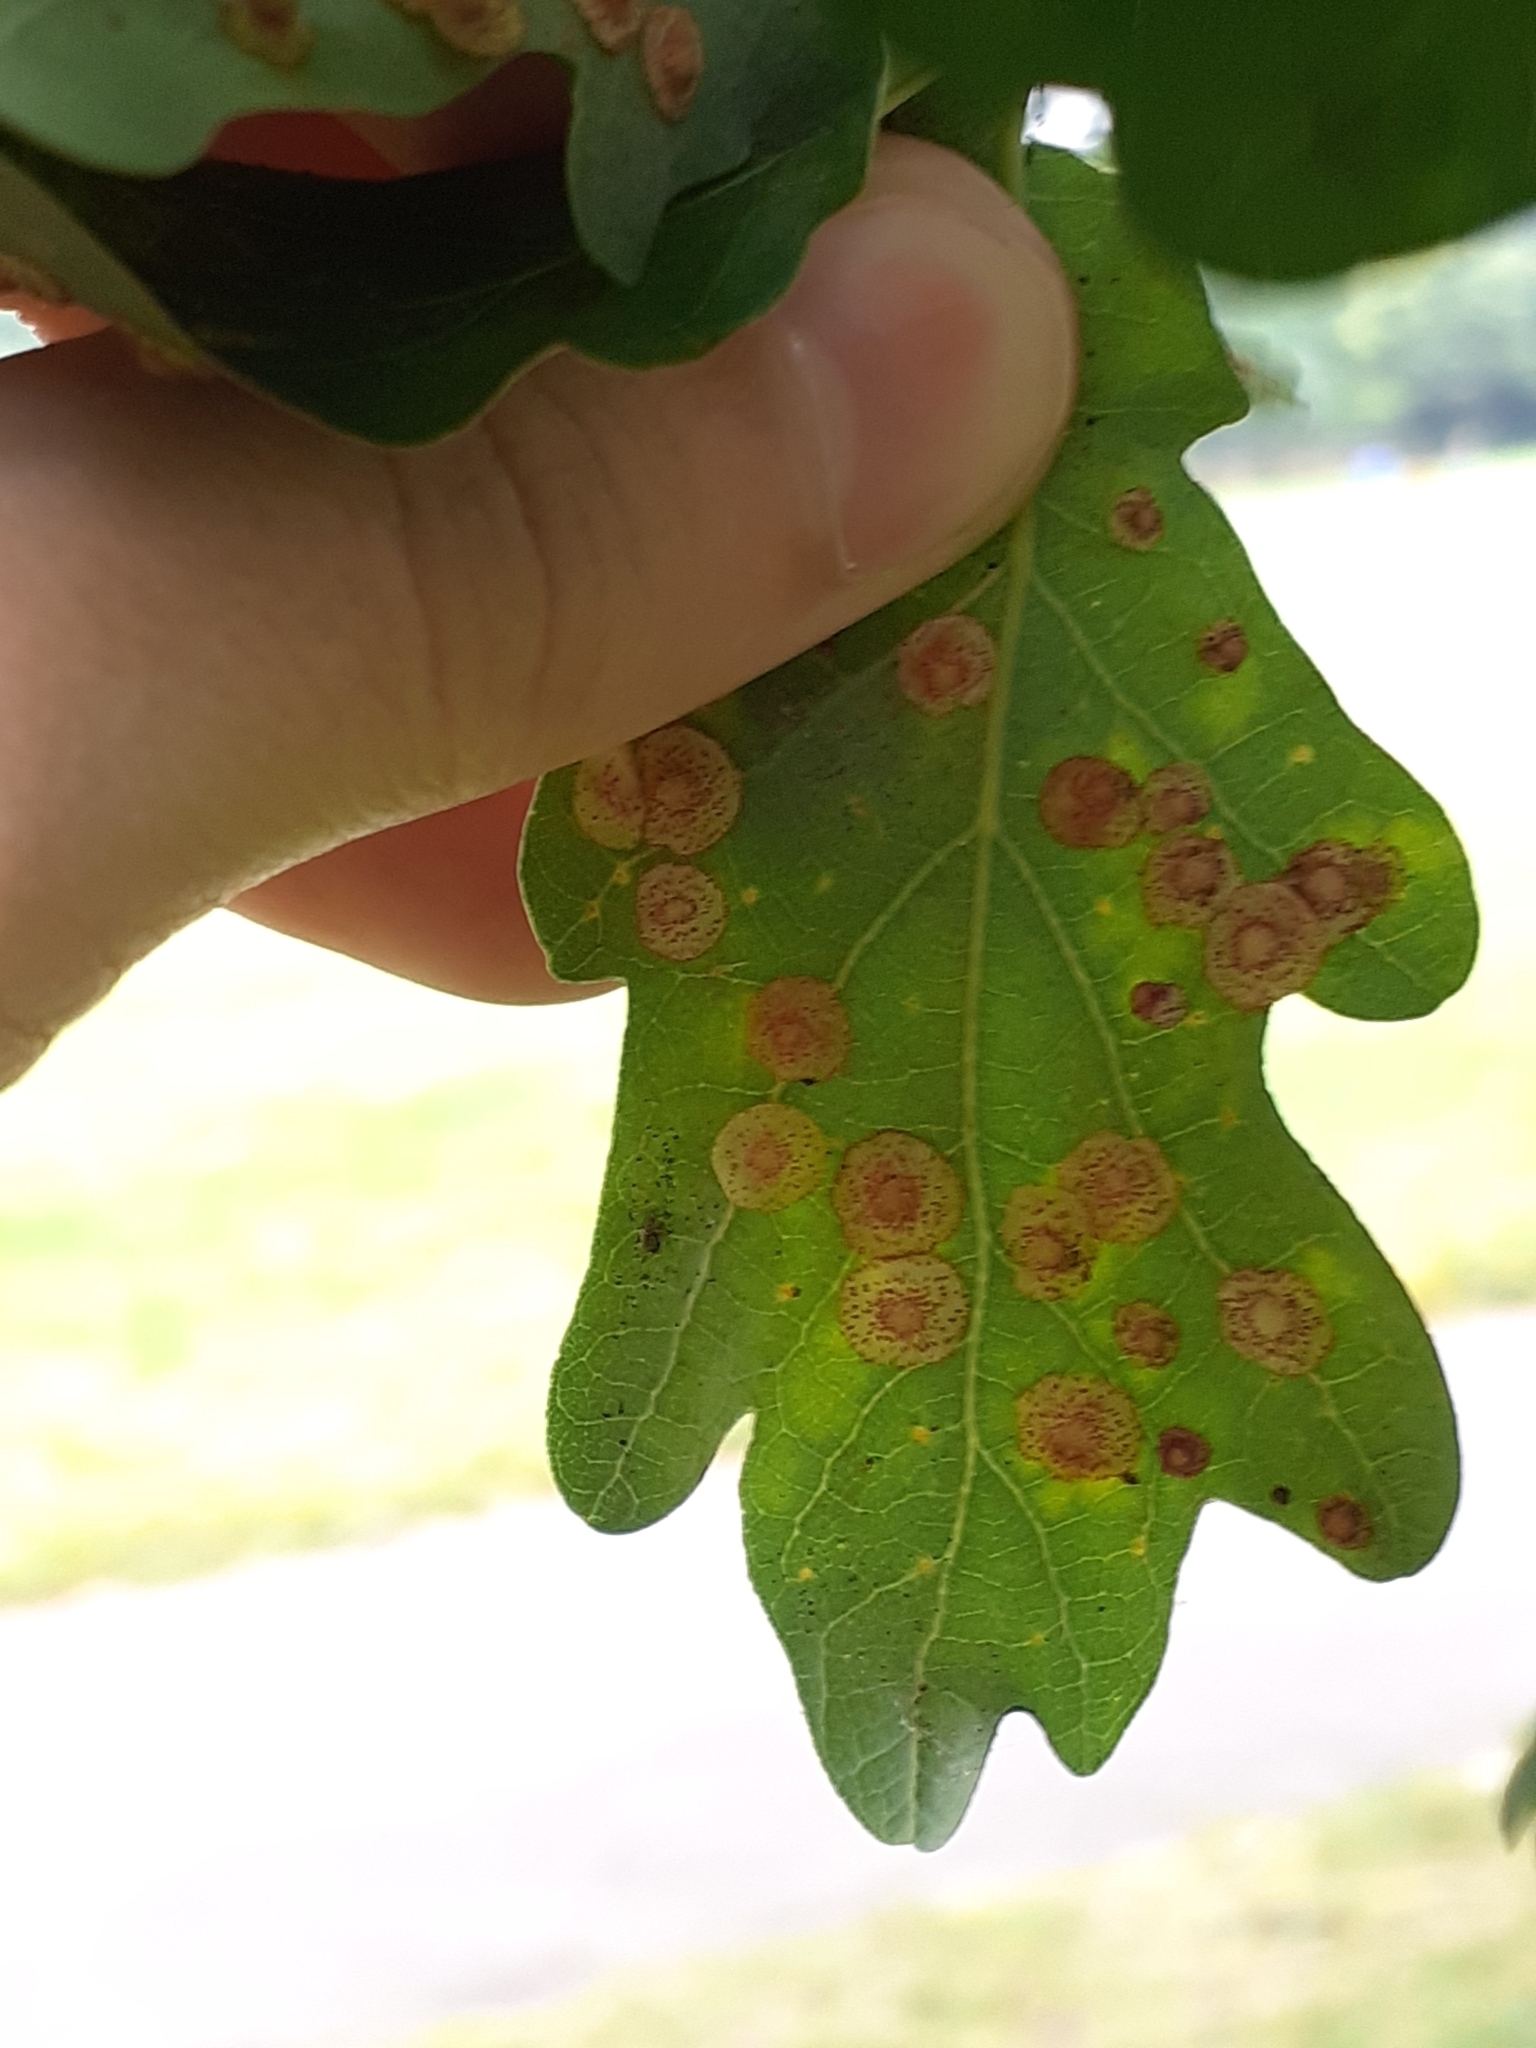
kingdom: Animalia
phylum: Arthropoda
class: Insecta
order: Hymenoptera
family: Cynipidae
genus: Neuroterus
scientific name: Neuroterus quercusbaccarum
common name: Common spangle gall
